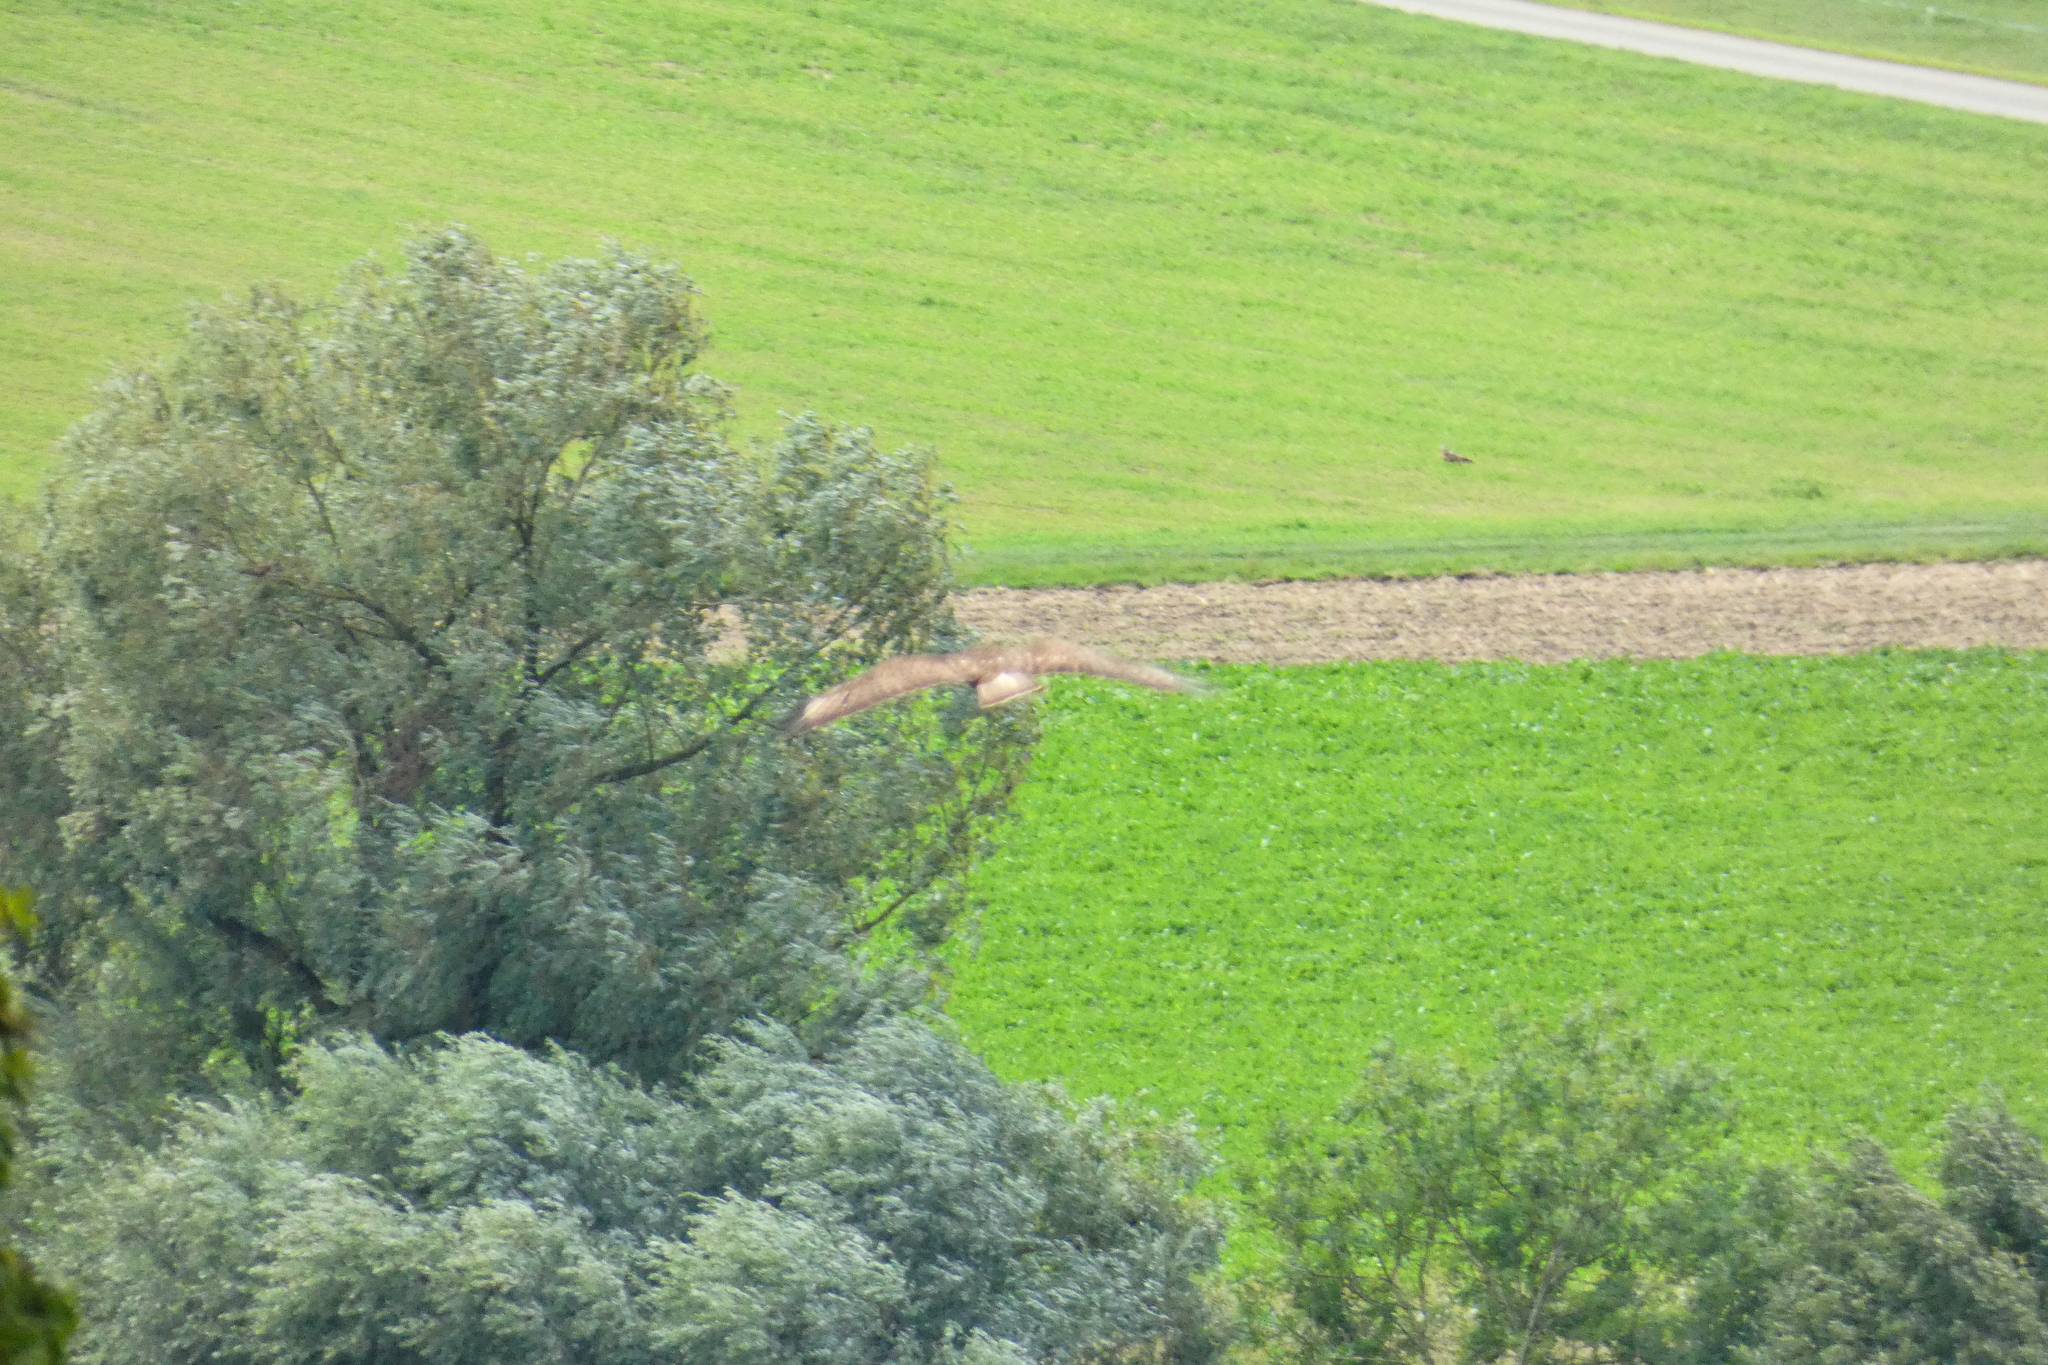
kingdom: Animalia
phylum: Chordata
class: Aves
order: Accipitriformes
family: Accipitridae
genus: Buteo
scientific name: Buteo buteo
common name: Common buzzard
